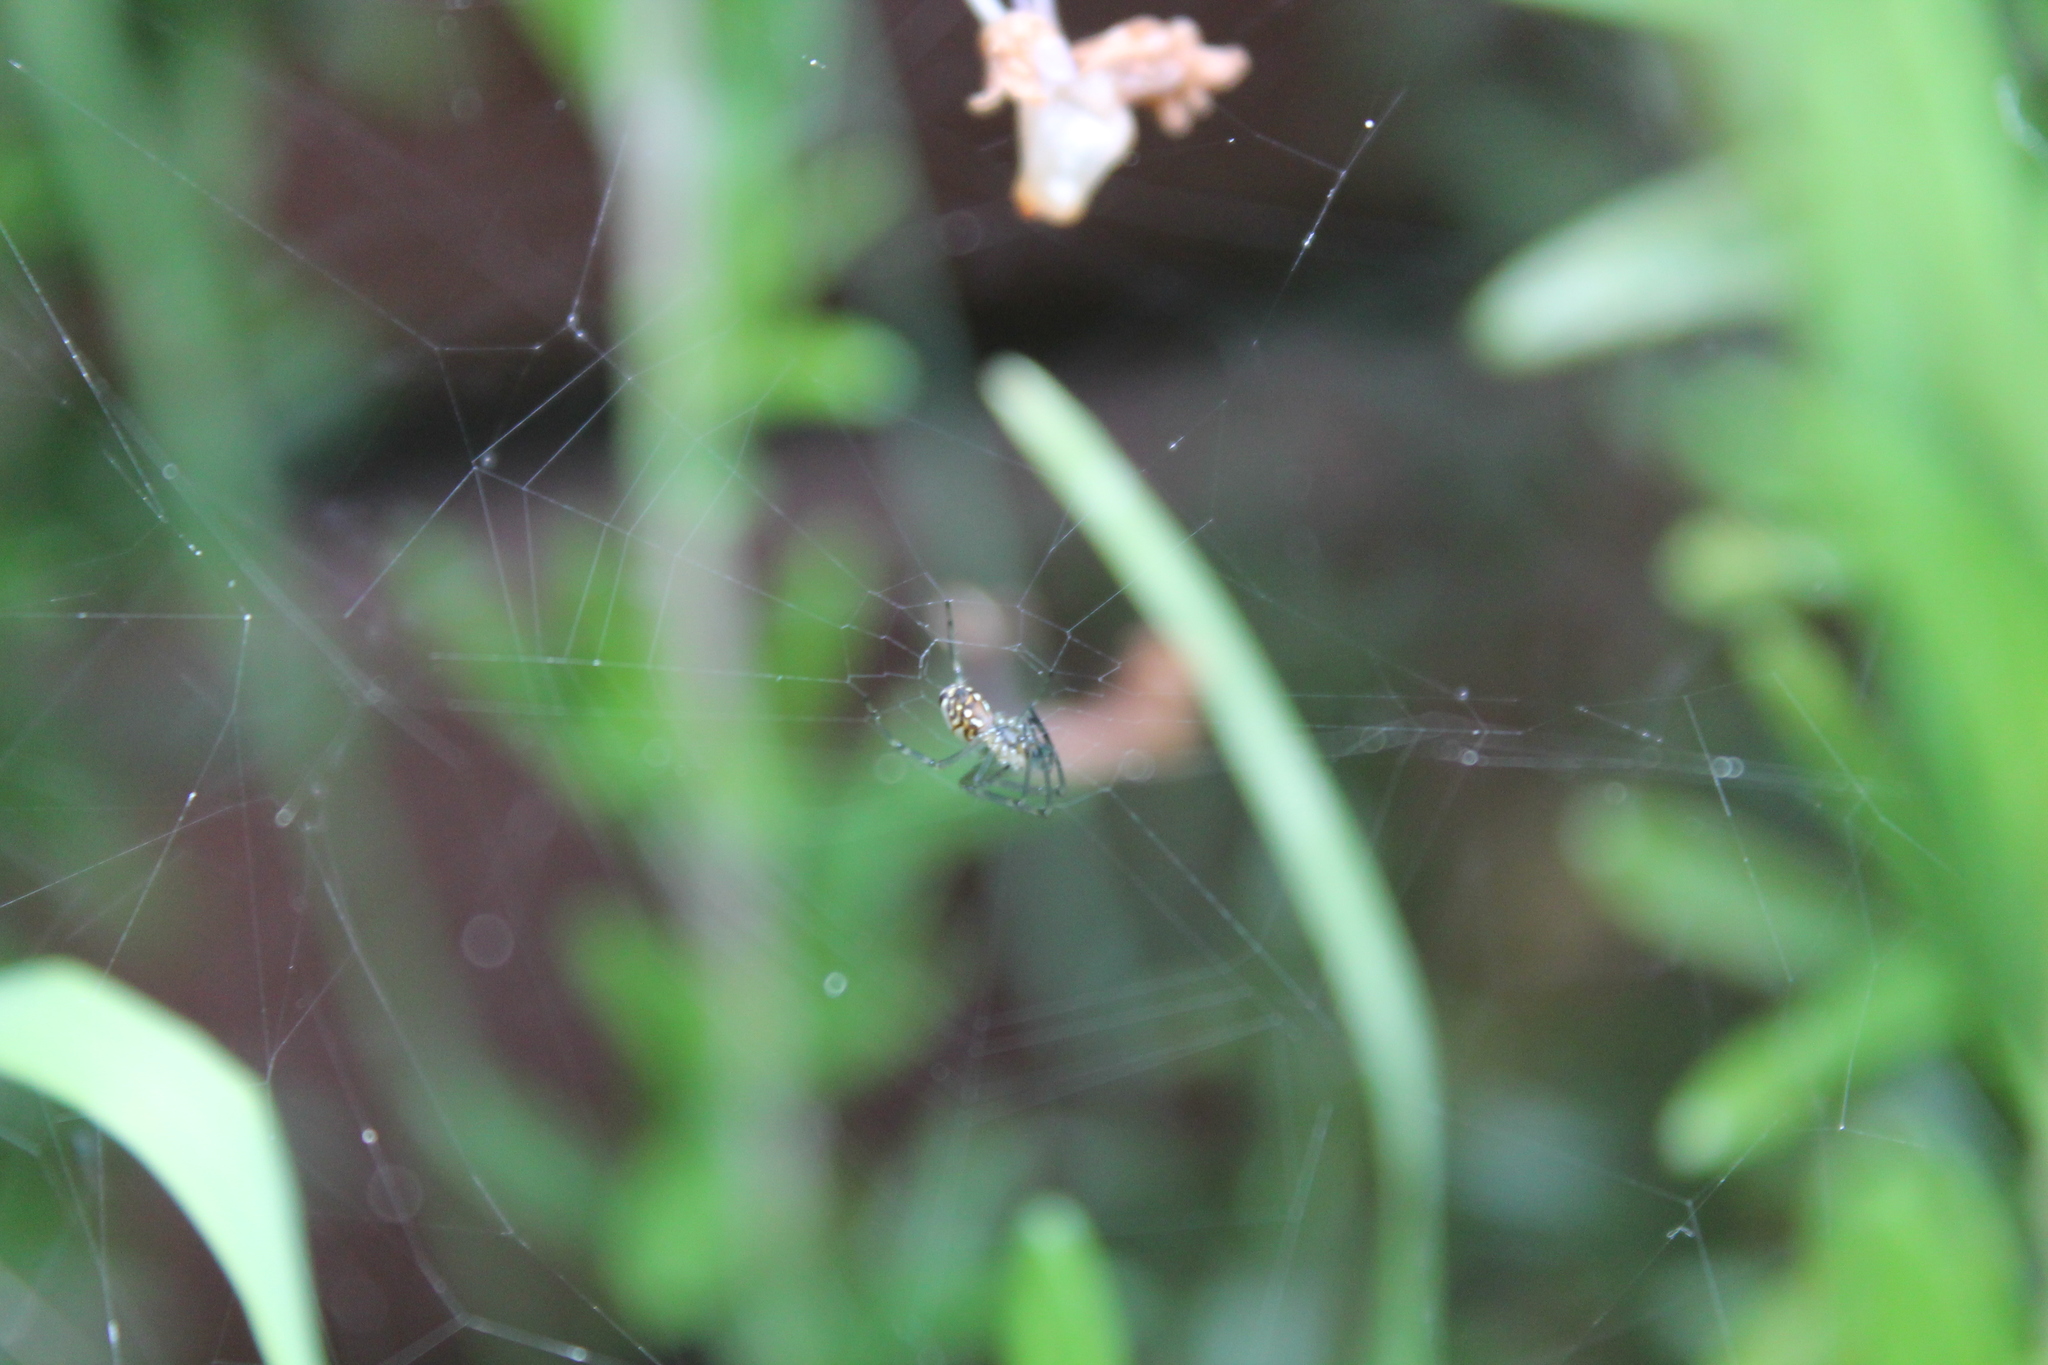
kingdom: Animalia
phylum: Arthropoda
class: Arachnida
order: Araneae
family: Tetragnathidae
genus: Leucauge
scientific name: Leucauge dromedaria
